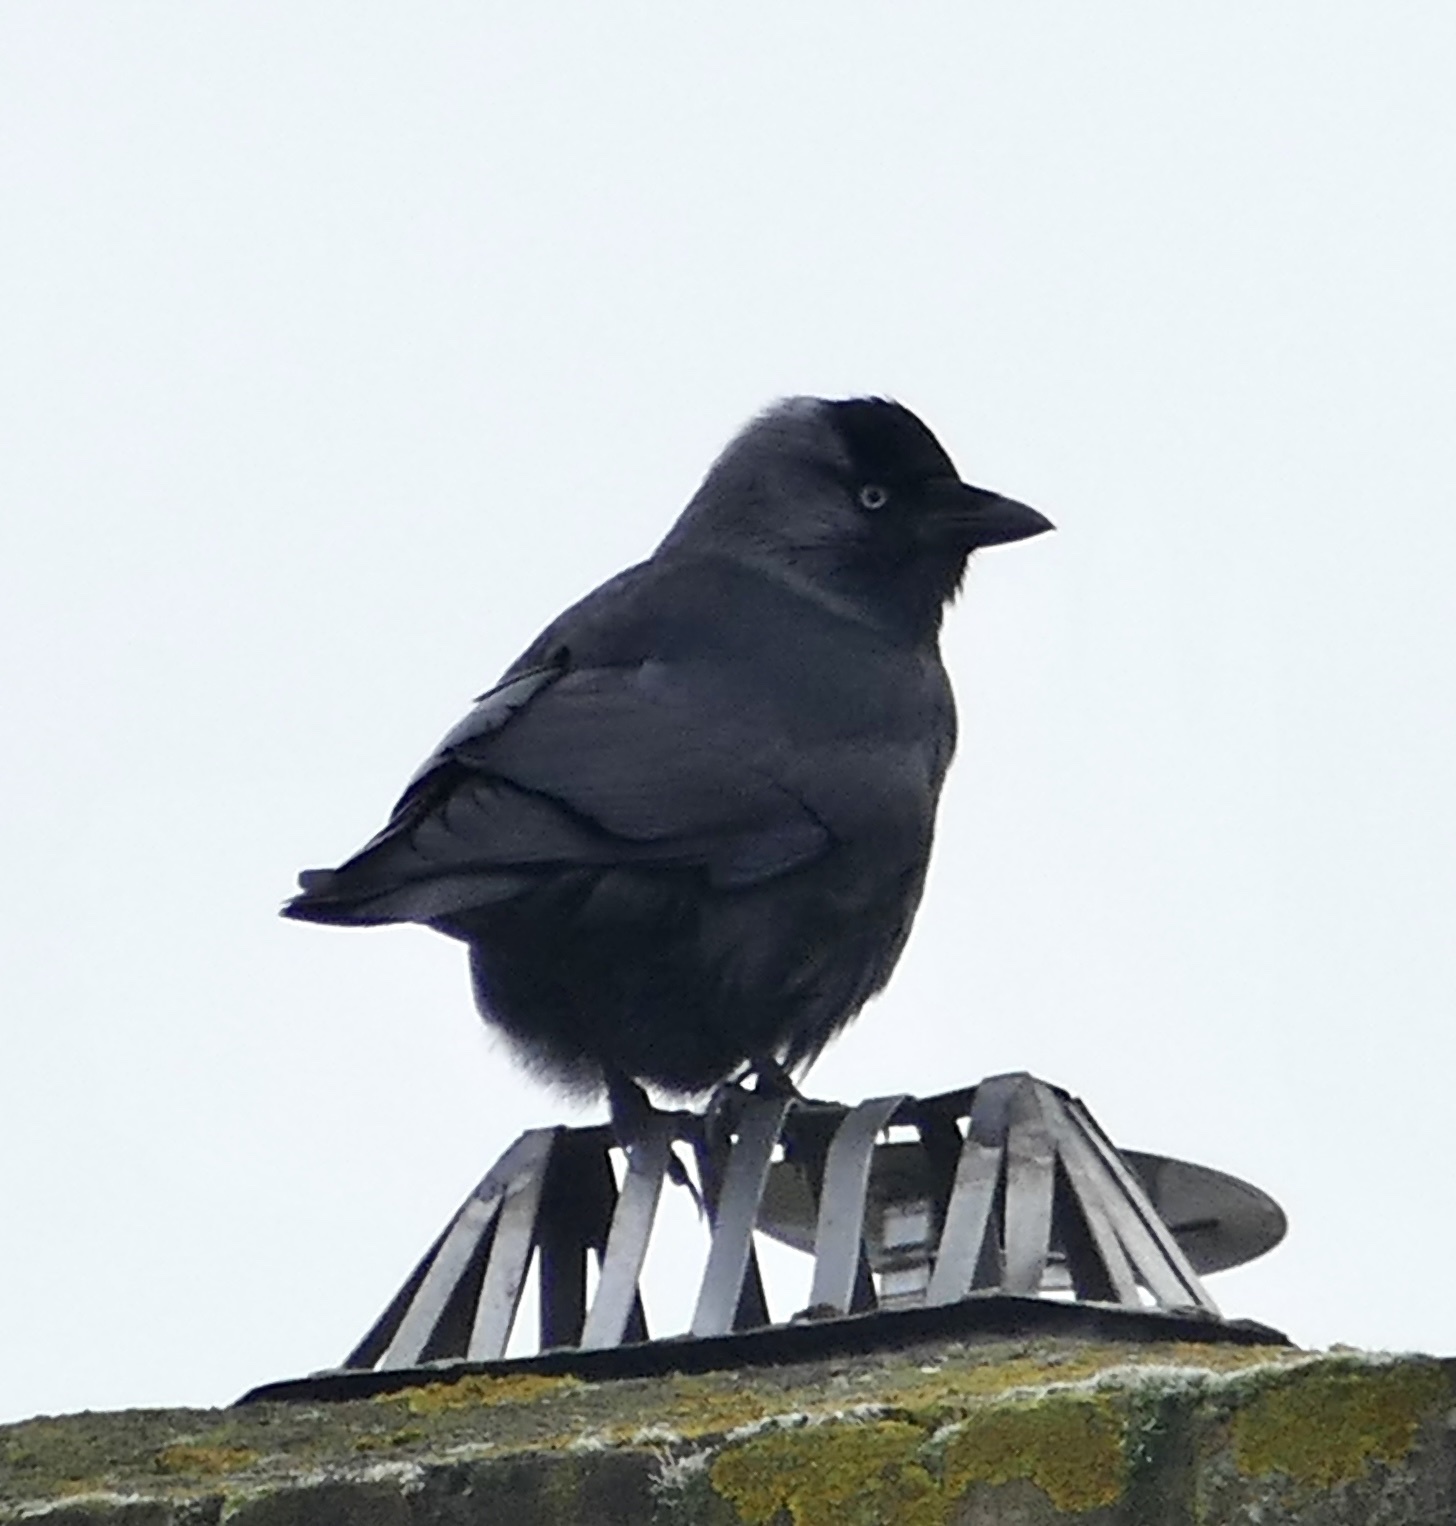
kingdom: Animalia
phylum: Chordata
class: Aves
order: Passeriformes
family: Corvidae
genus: Coloeus
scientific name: Coloeus monedula
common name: Western jackdaw
